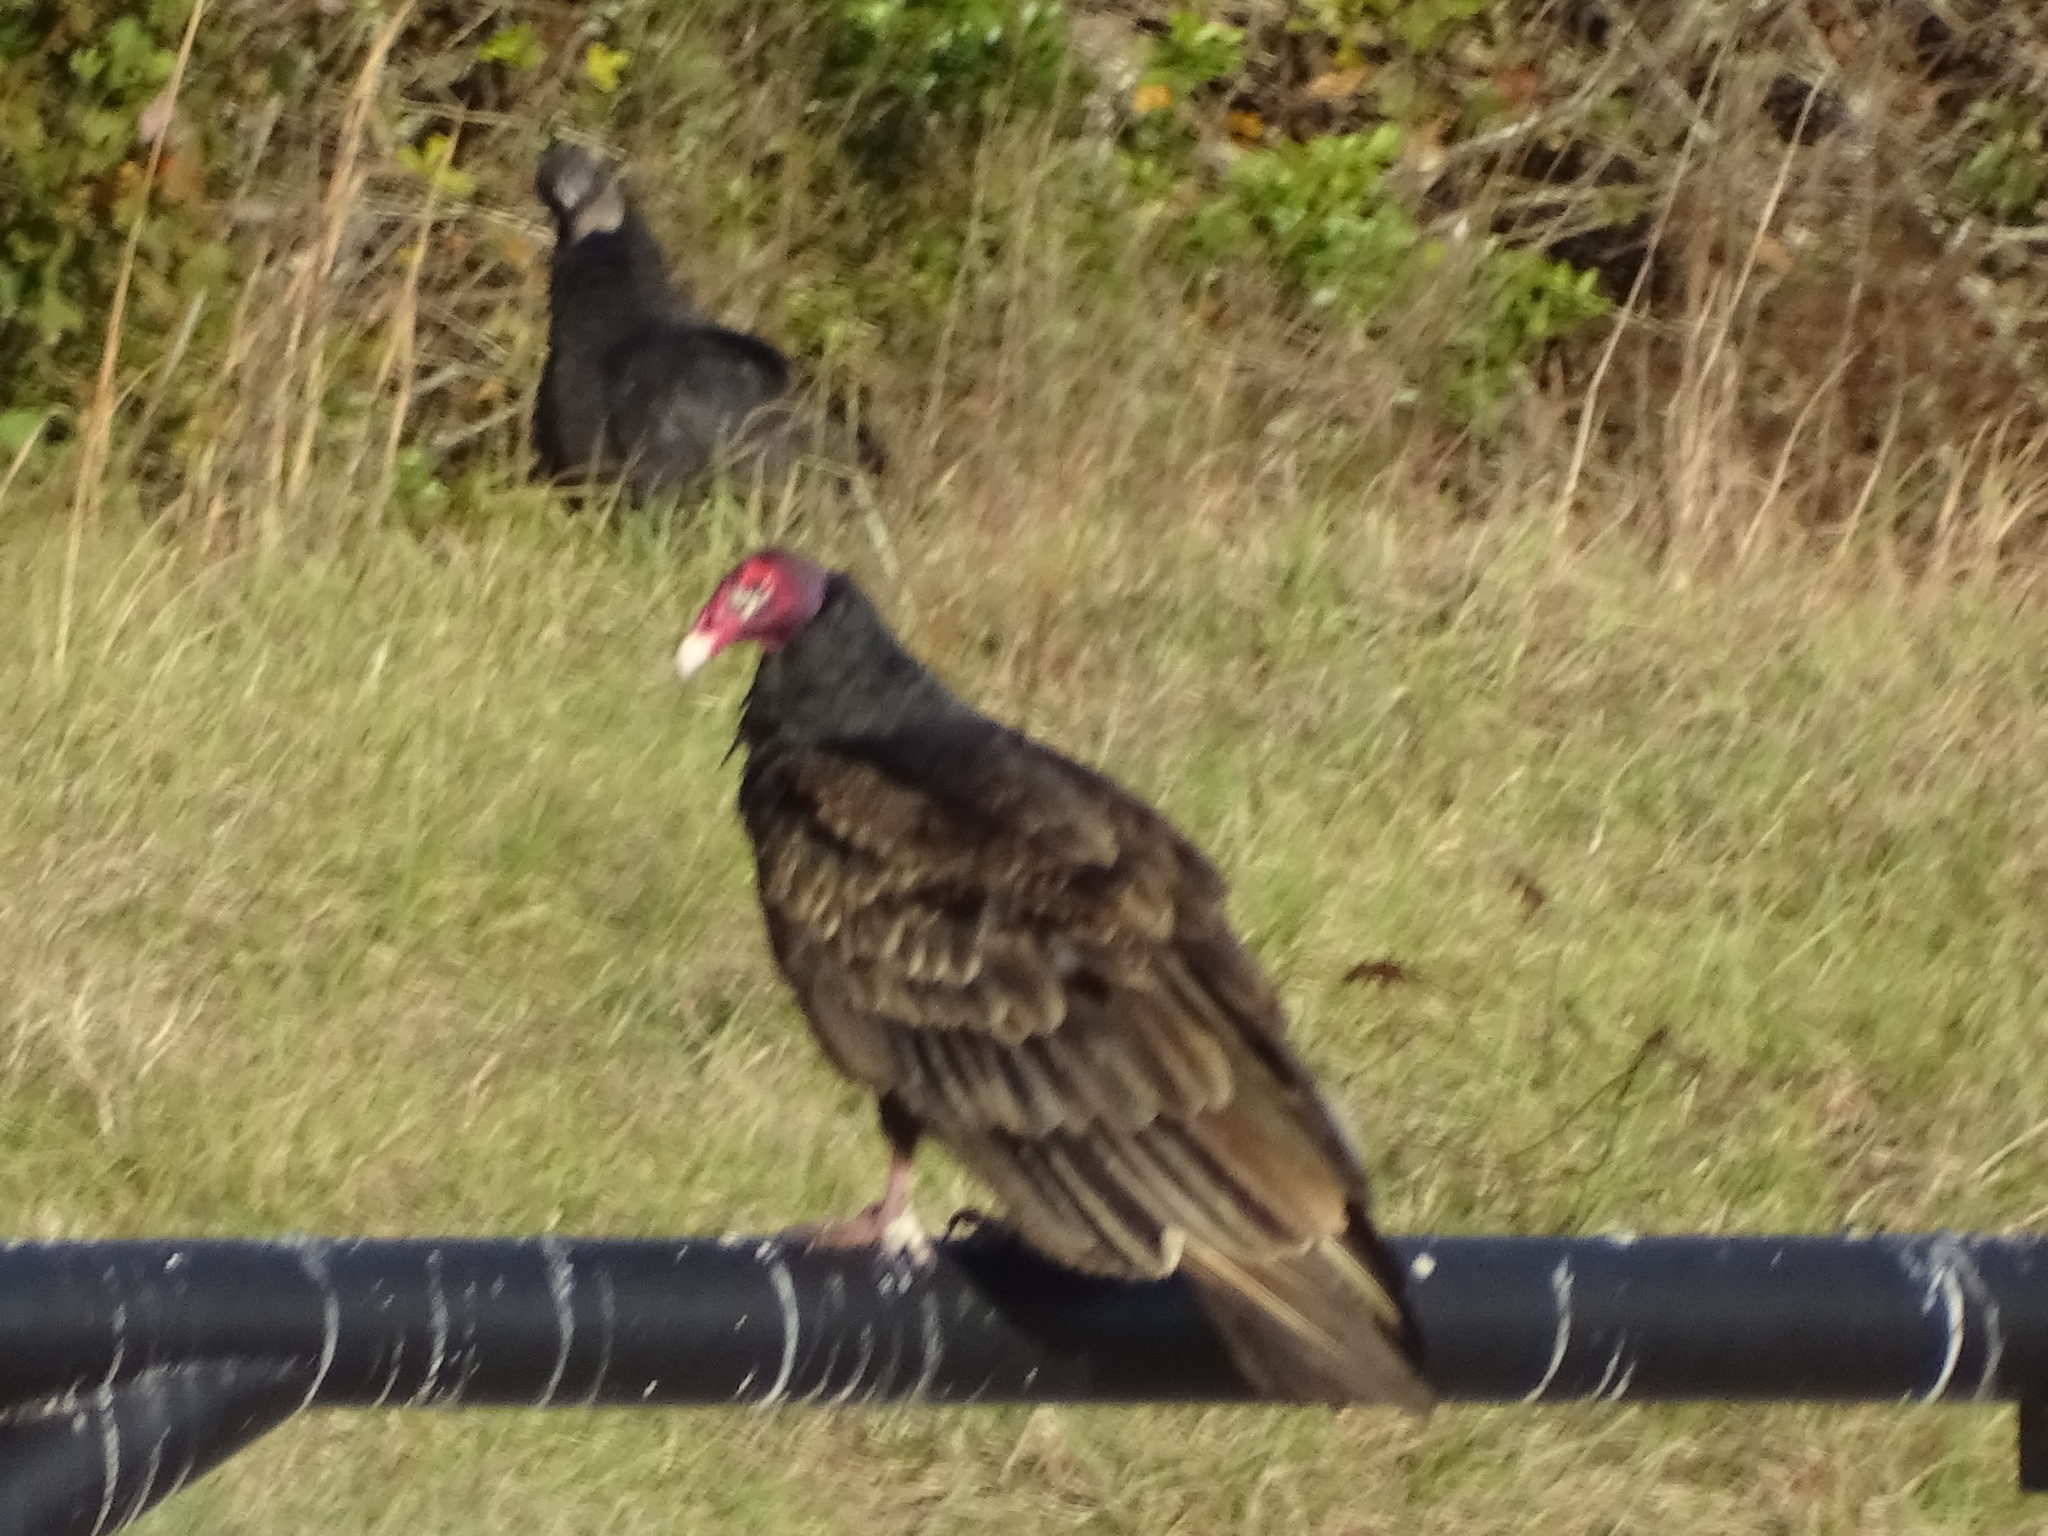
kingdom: Animalia
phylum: Chordata
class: Aves
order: Accipitriformes
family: Cathartidae
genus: Cathartes
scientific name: Cathartes aura
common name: Turkey vulture
